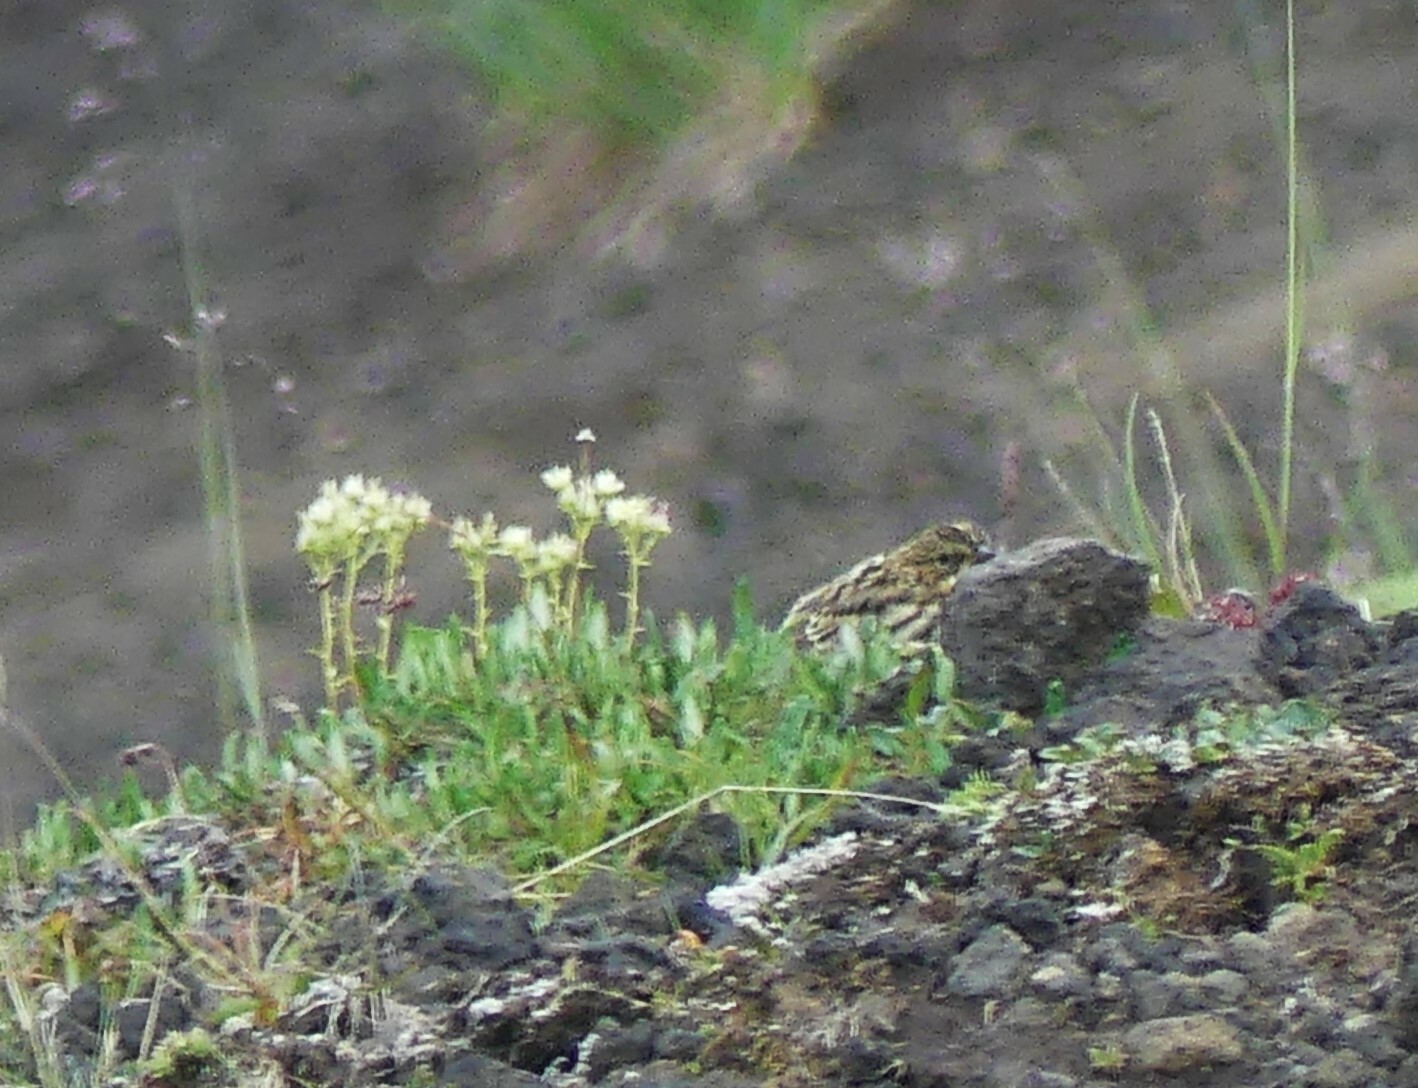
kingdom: Animalia
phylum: Chordata
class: Aves
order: Passeriformes
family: Passerellidae
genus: Passerculus
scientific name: Passerculus sandwichensis
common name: Savannah sparrow
